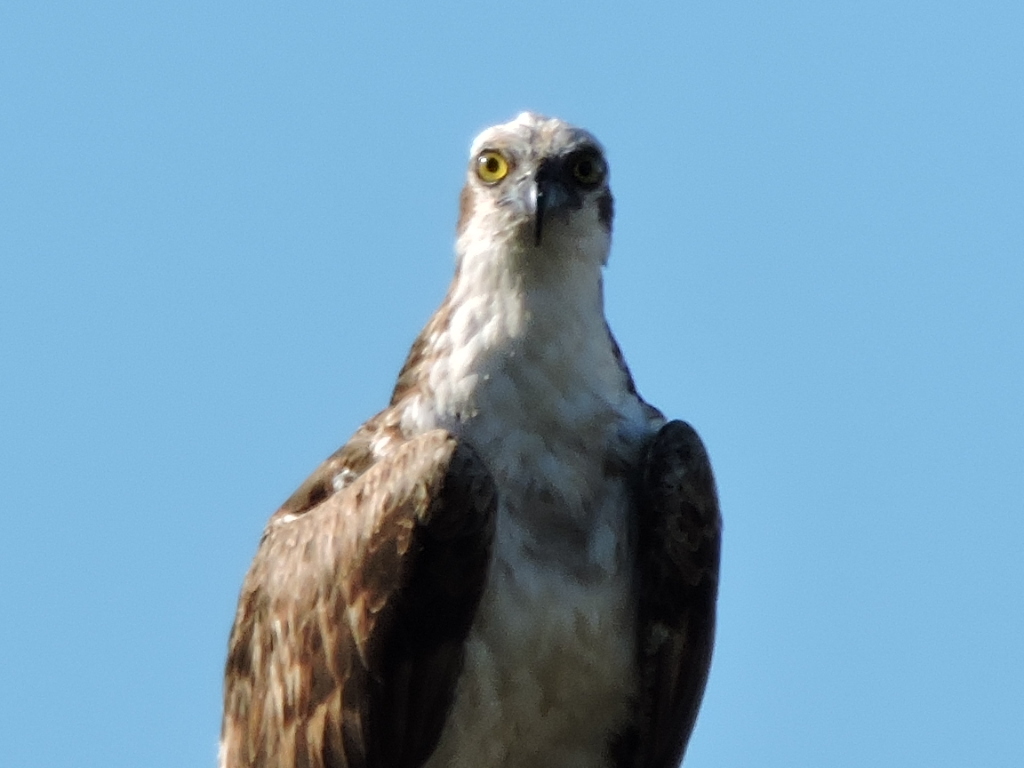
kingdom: Animalia
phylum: Chordata
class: Aves
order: Accipitriformes
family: Pandionidae
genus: Pandion
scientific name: Pandion haliaetus
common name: Osprey
